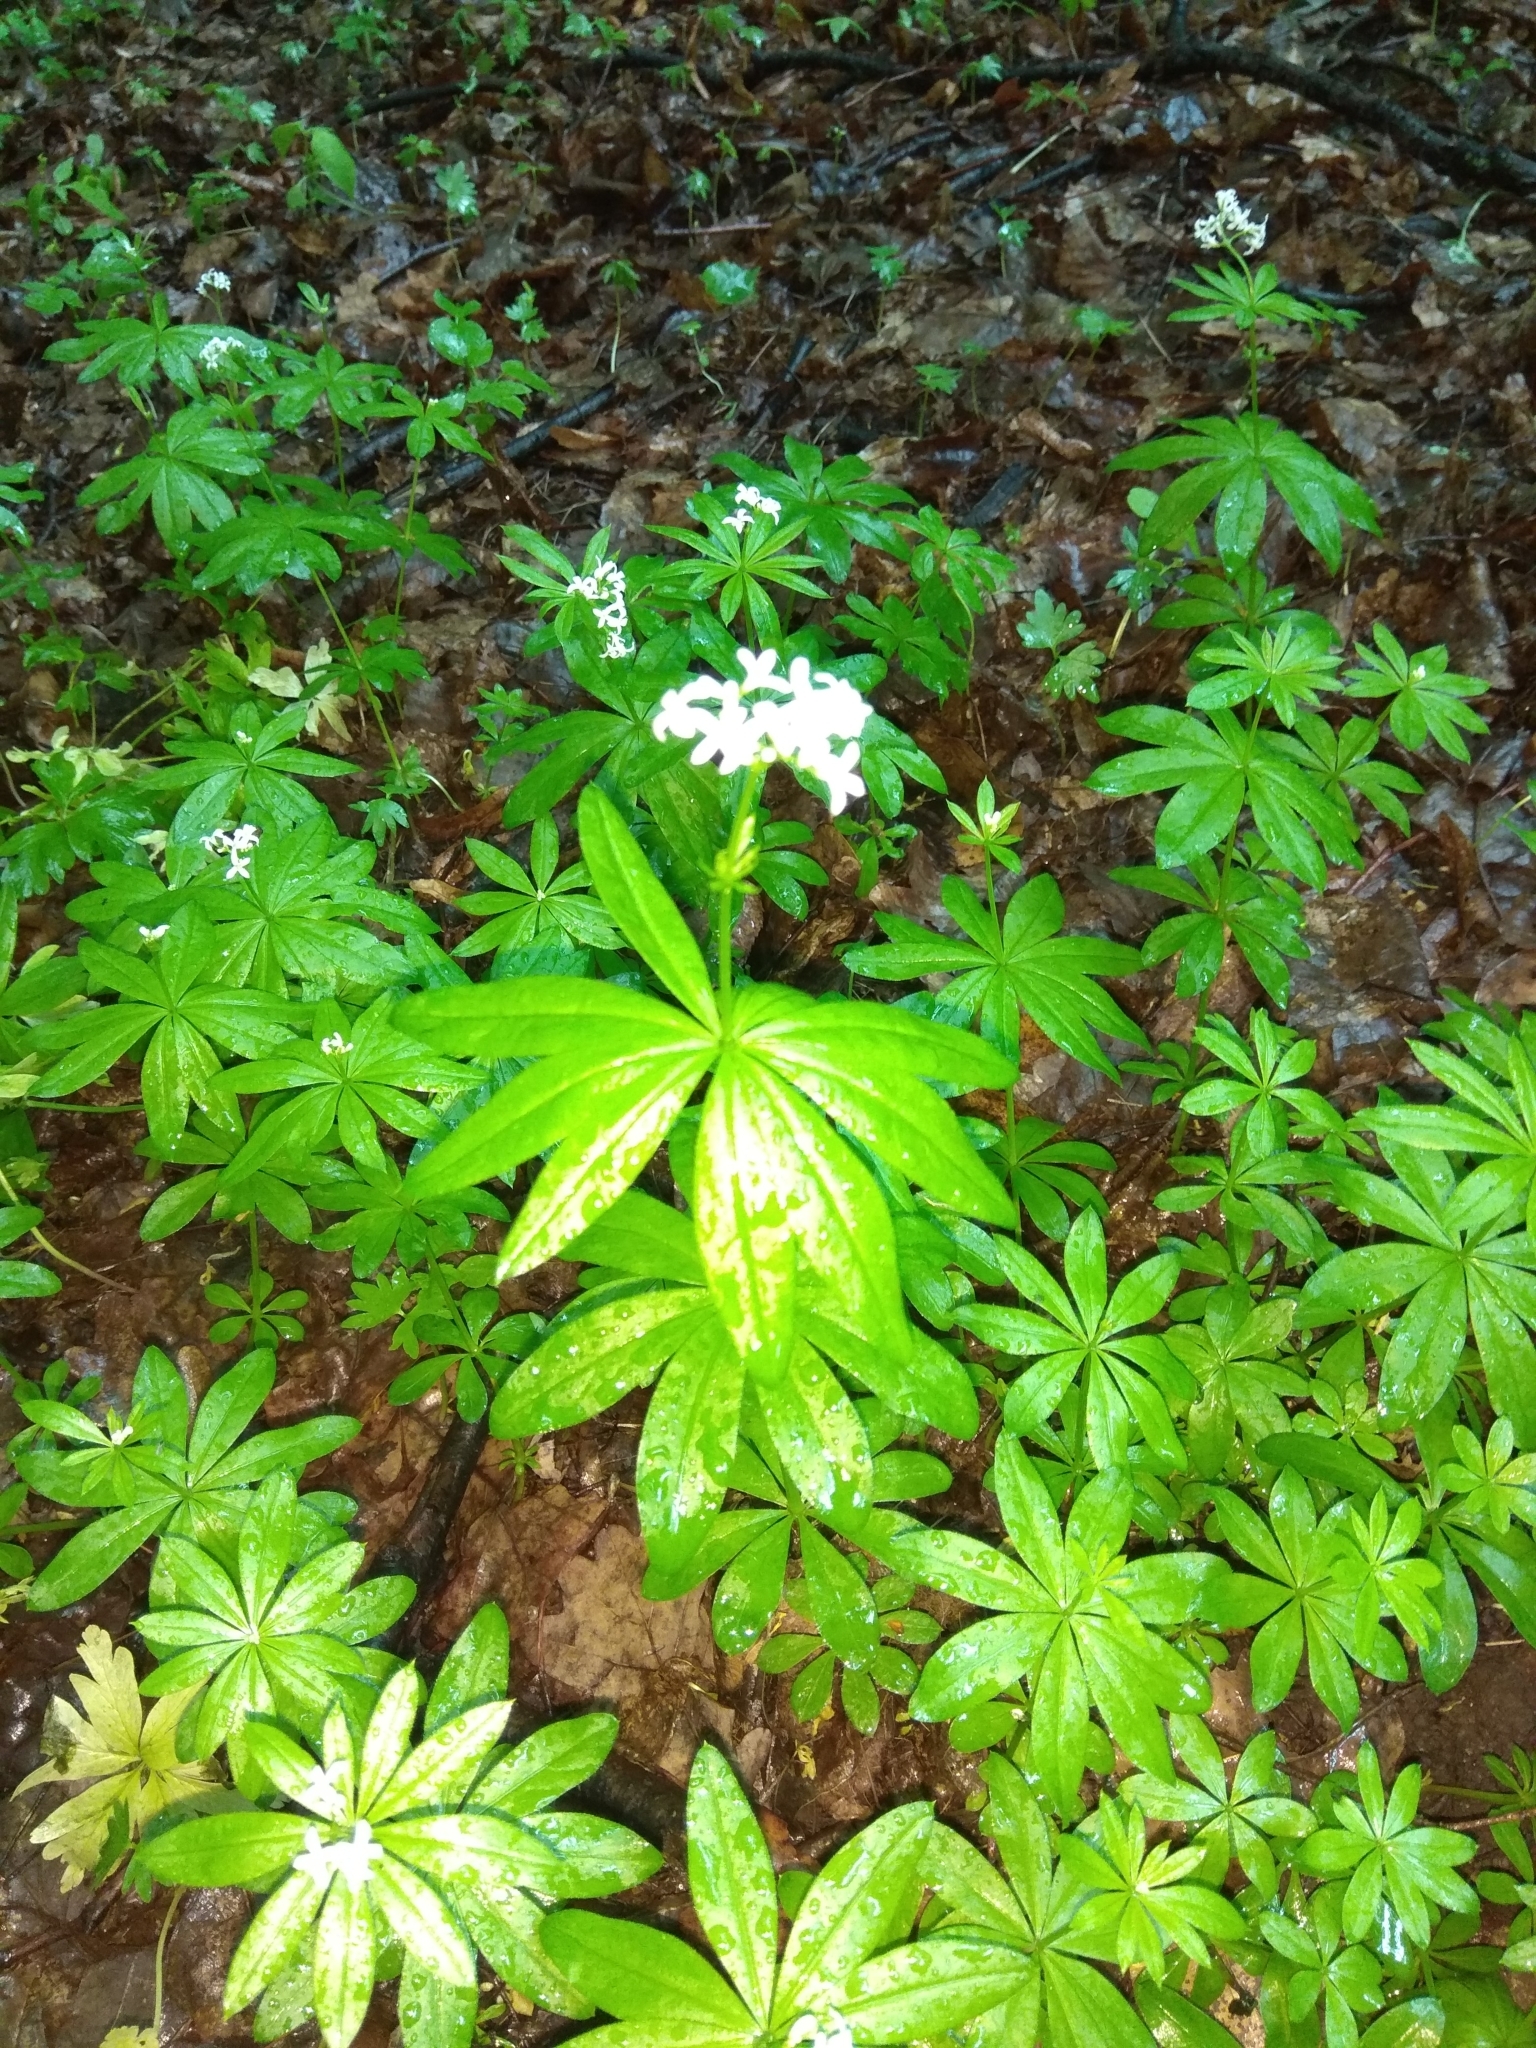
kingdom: Plantae
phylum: Tracheophyta
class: Magnoliopsida
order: Gentianales
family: Rubiaceae
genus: Galium
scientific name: Galium odoratum
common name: Sweet woodruff
